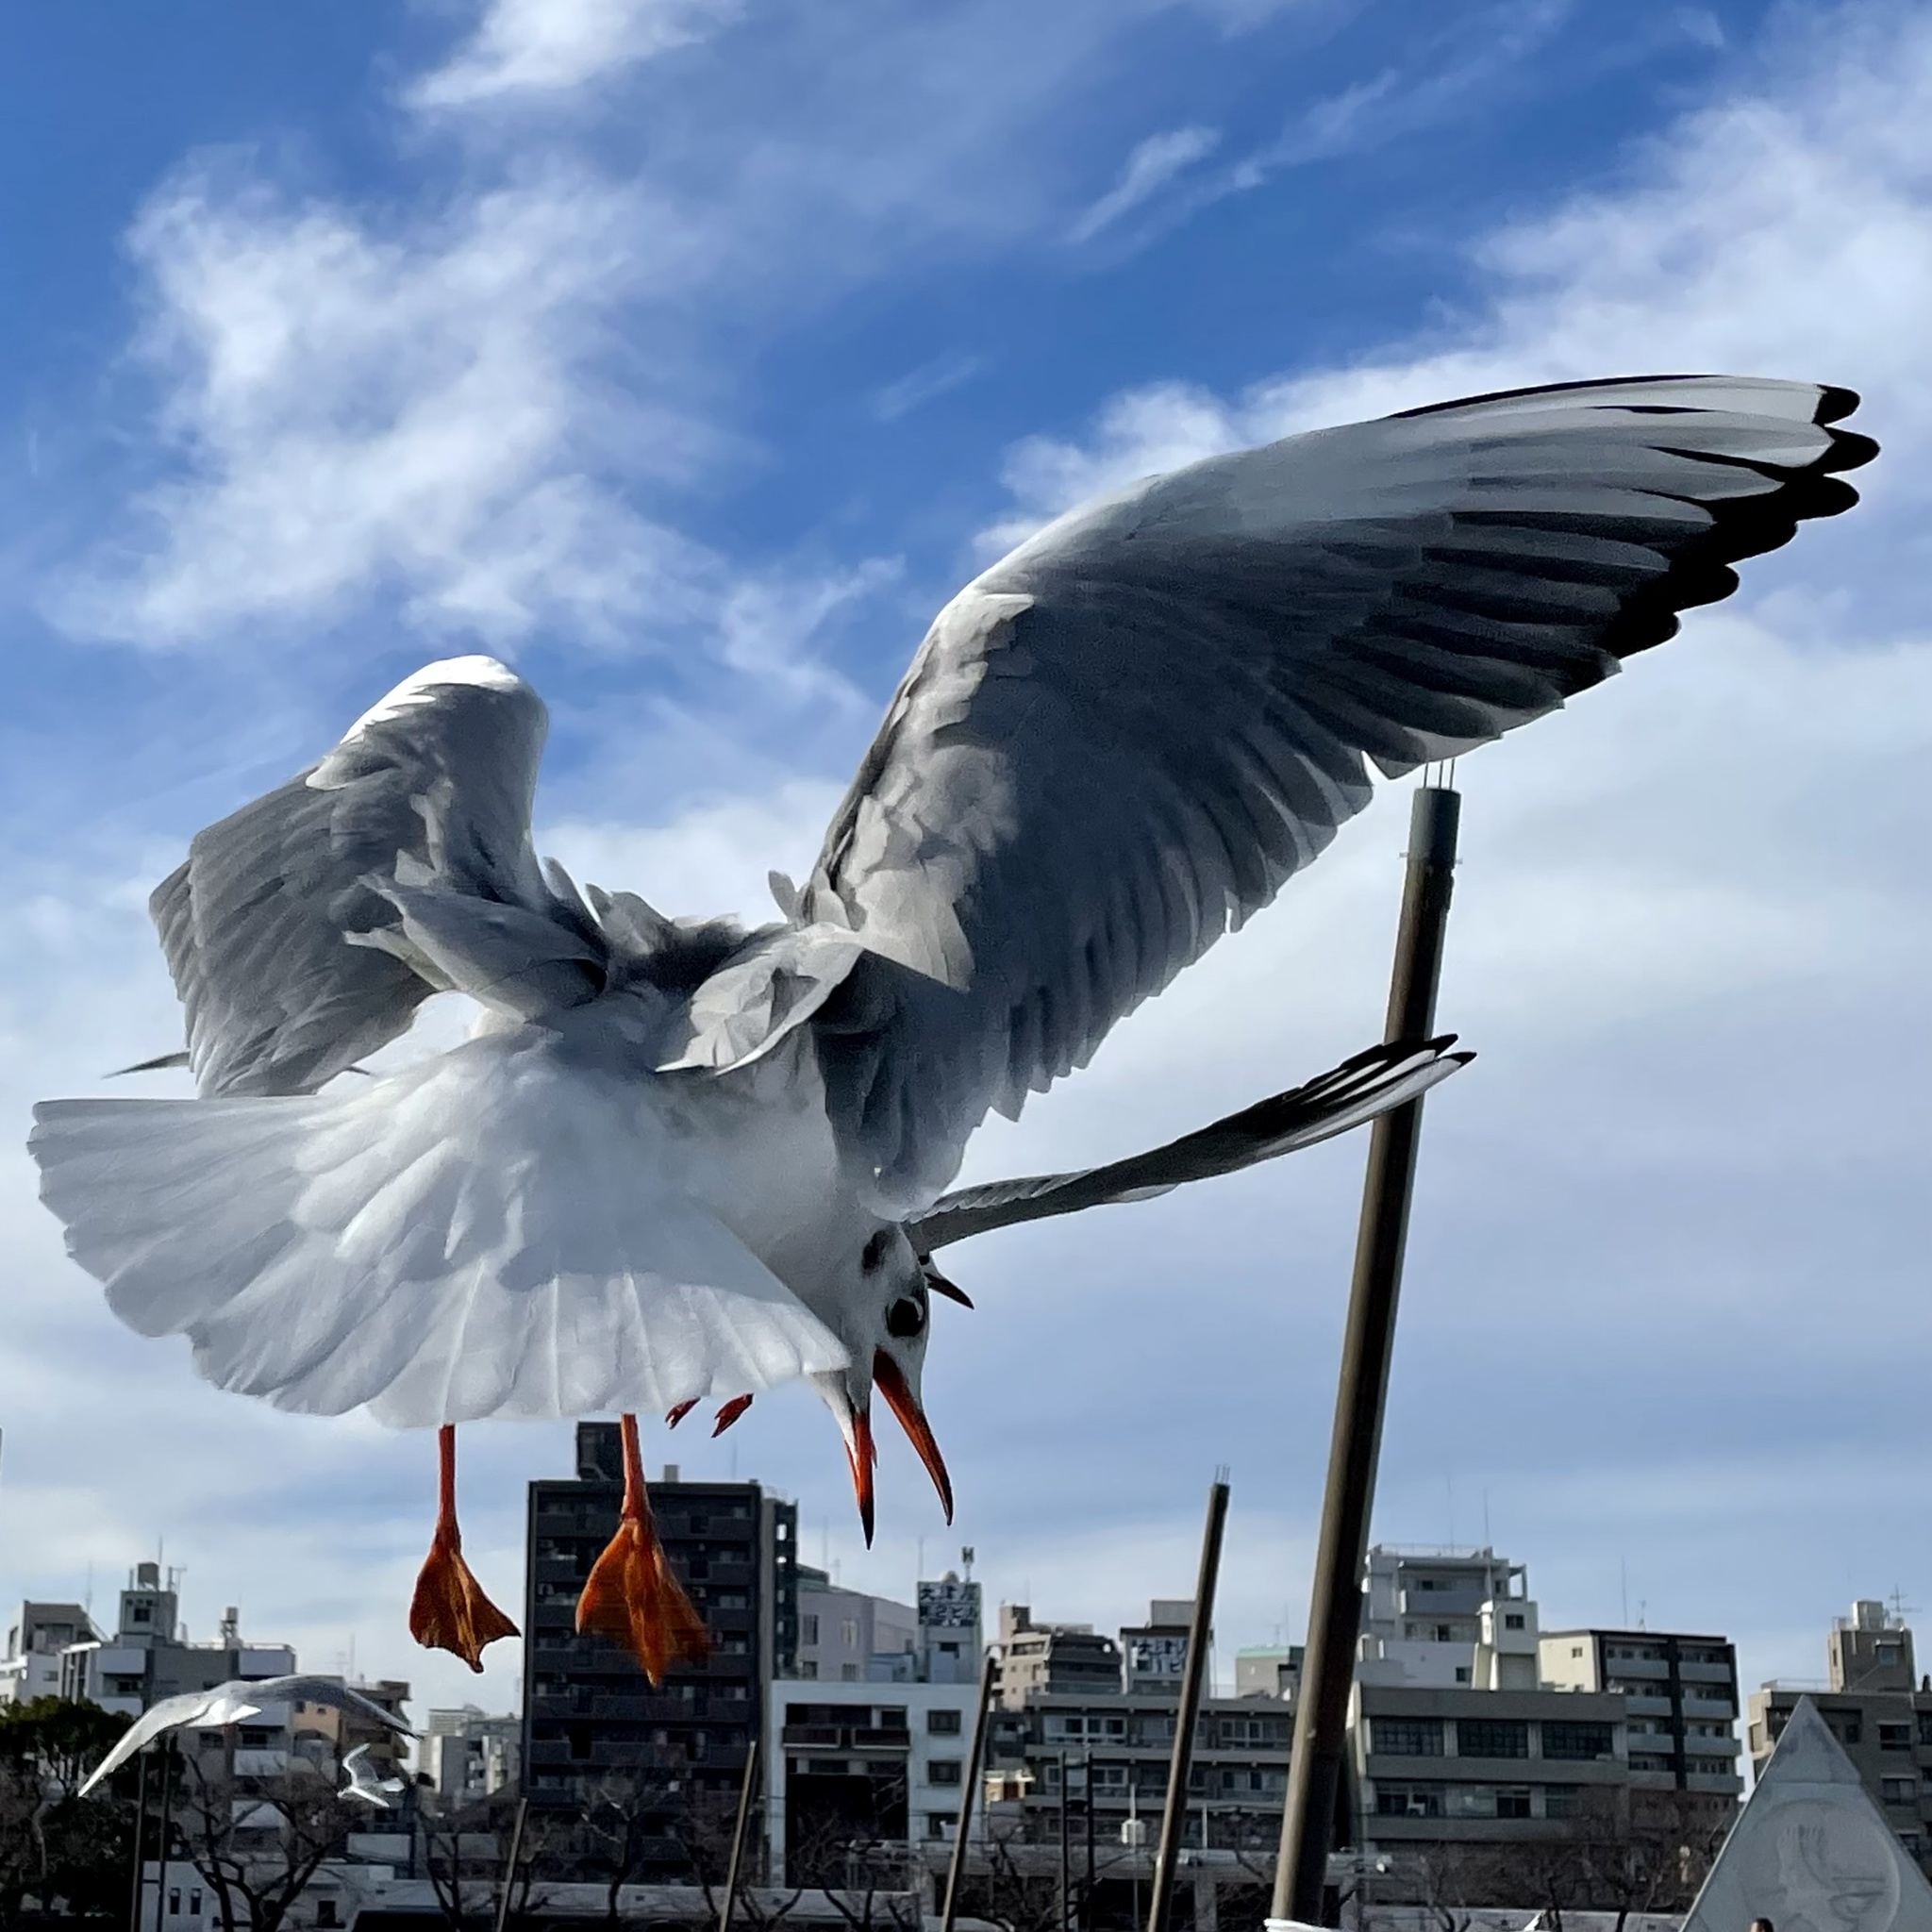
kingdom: Animalia
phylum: Chordata
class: Aves
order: Charadriiformes
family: Laridae
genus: Chroicocephalus
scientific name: Chroicocephalus ridibundus
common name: Black-headed gull
